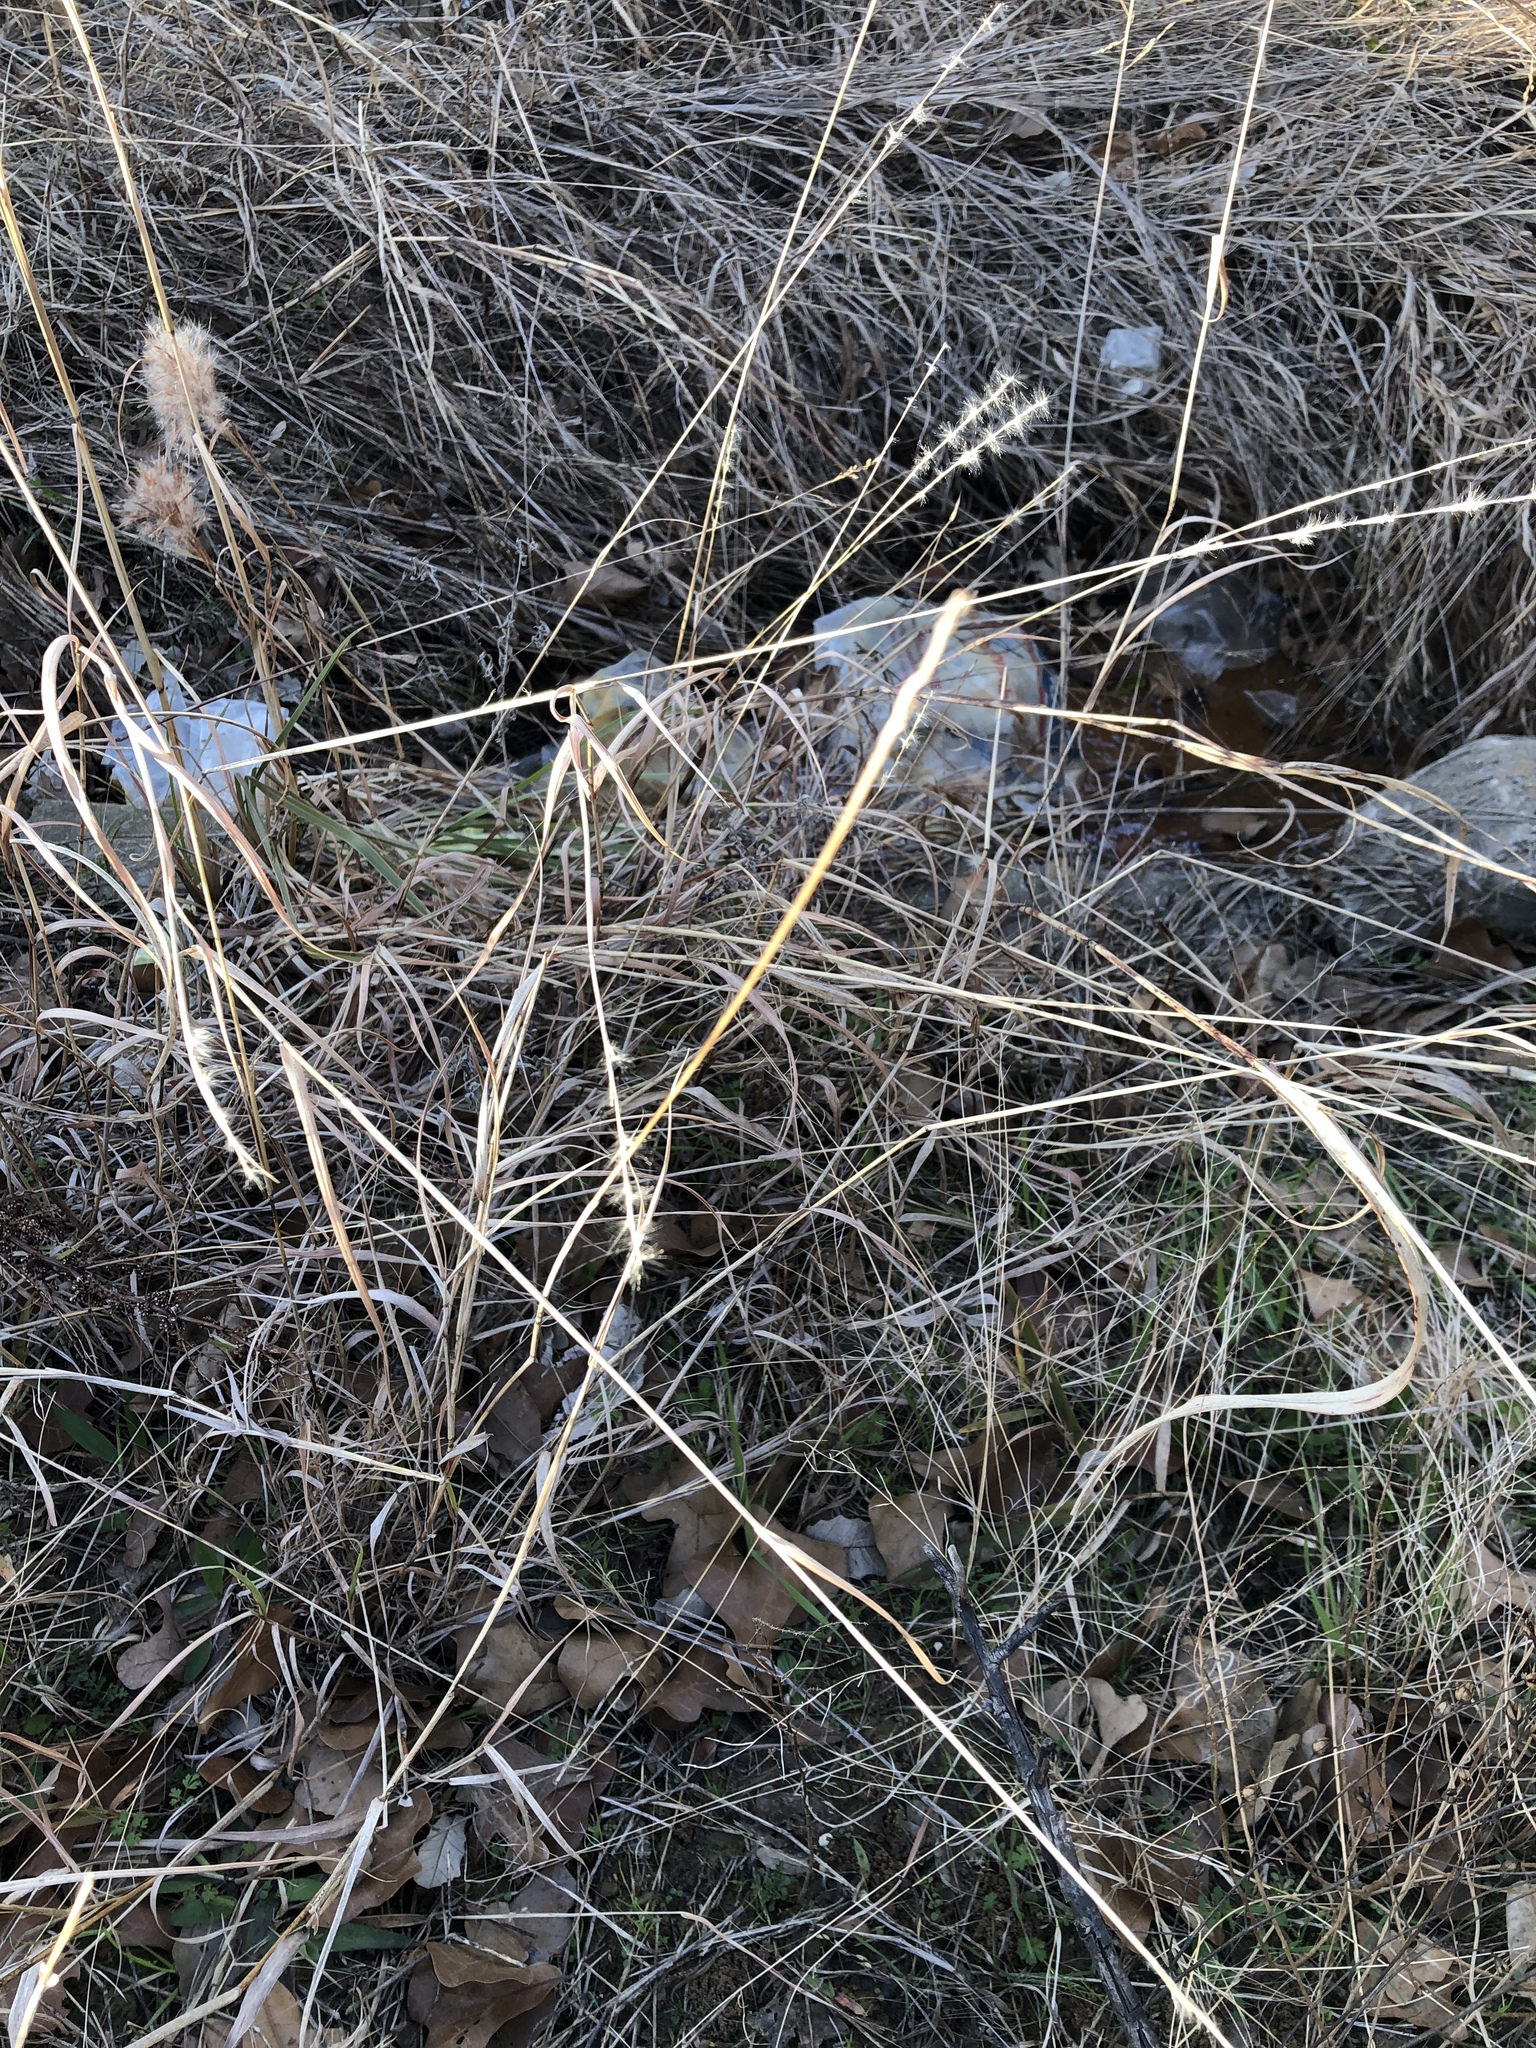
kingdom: Plantae
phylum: Tracheophyta
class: Liliopsida
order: Poales
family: Poaceae
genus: Bothriochloa
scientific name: Bothriochloa torreyana
